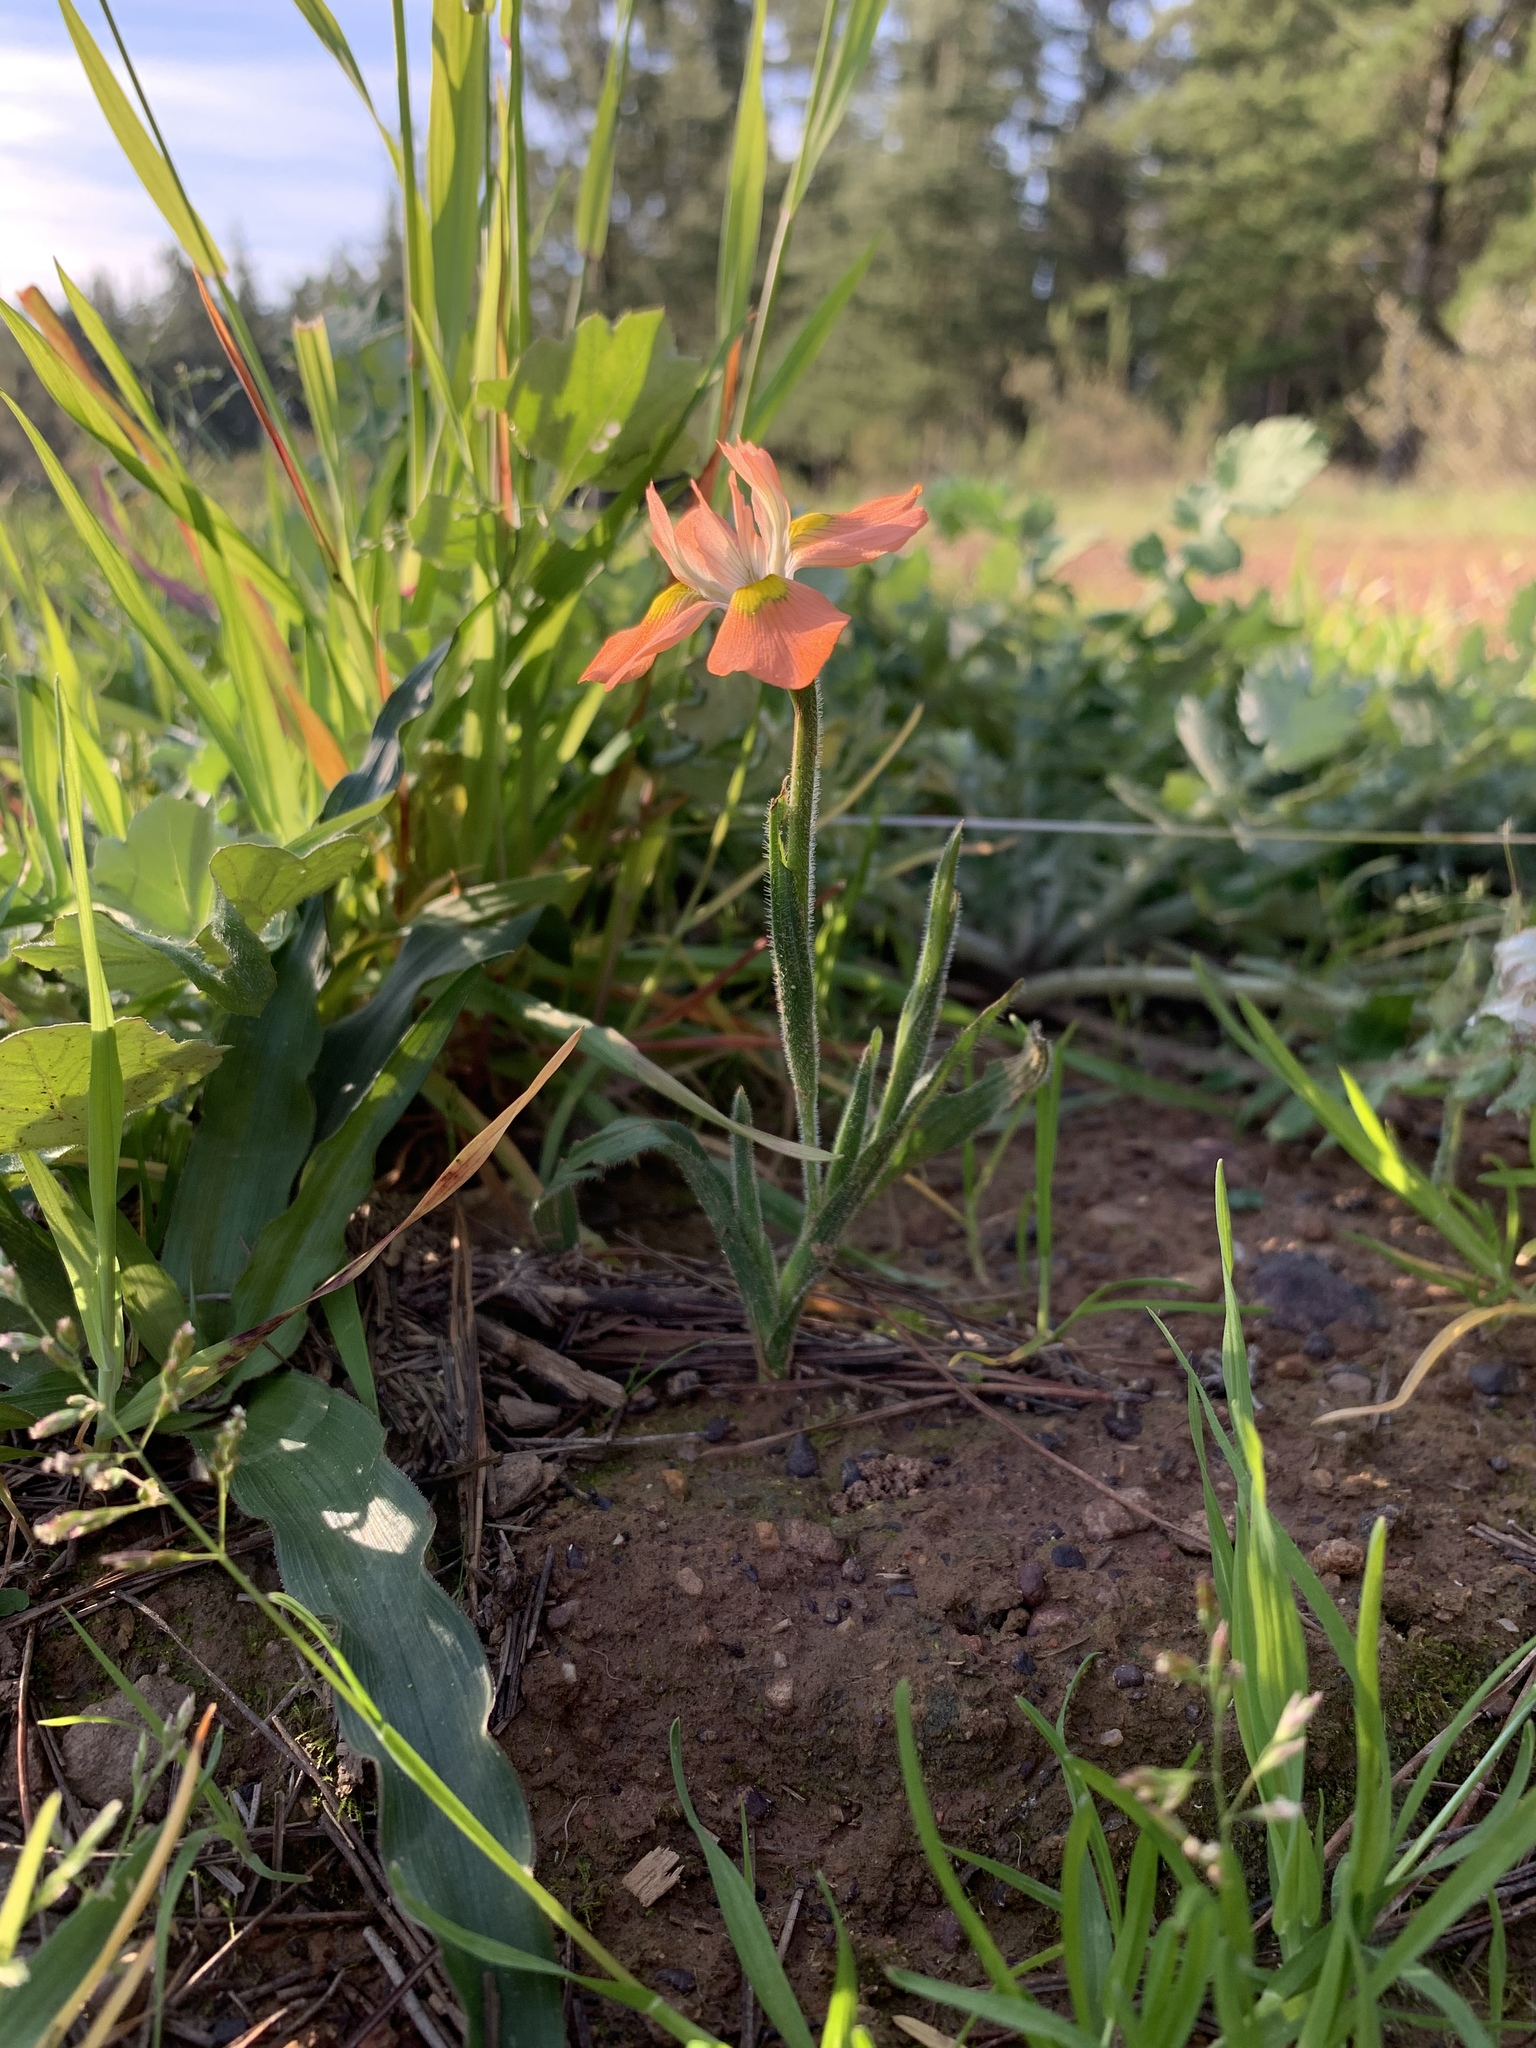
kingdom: Plantae
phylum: Tracheophyta
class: Liliopsida
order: Asparagales
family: Iridaceae
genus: Moraea
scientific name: Moraea papilionacea
